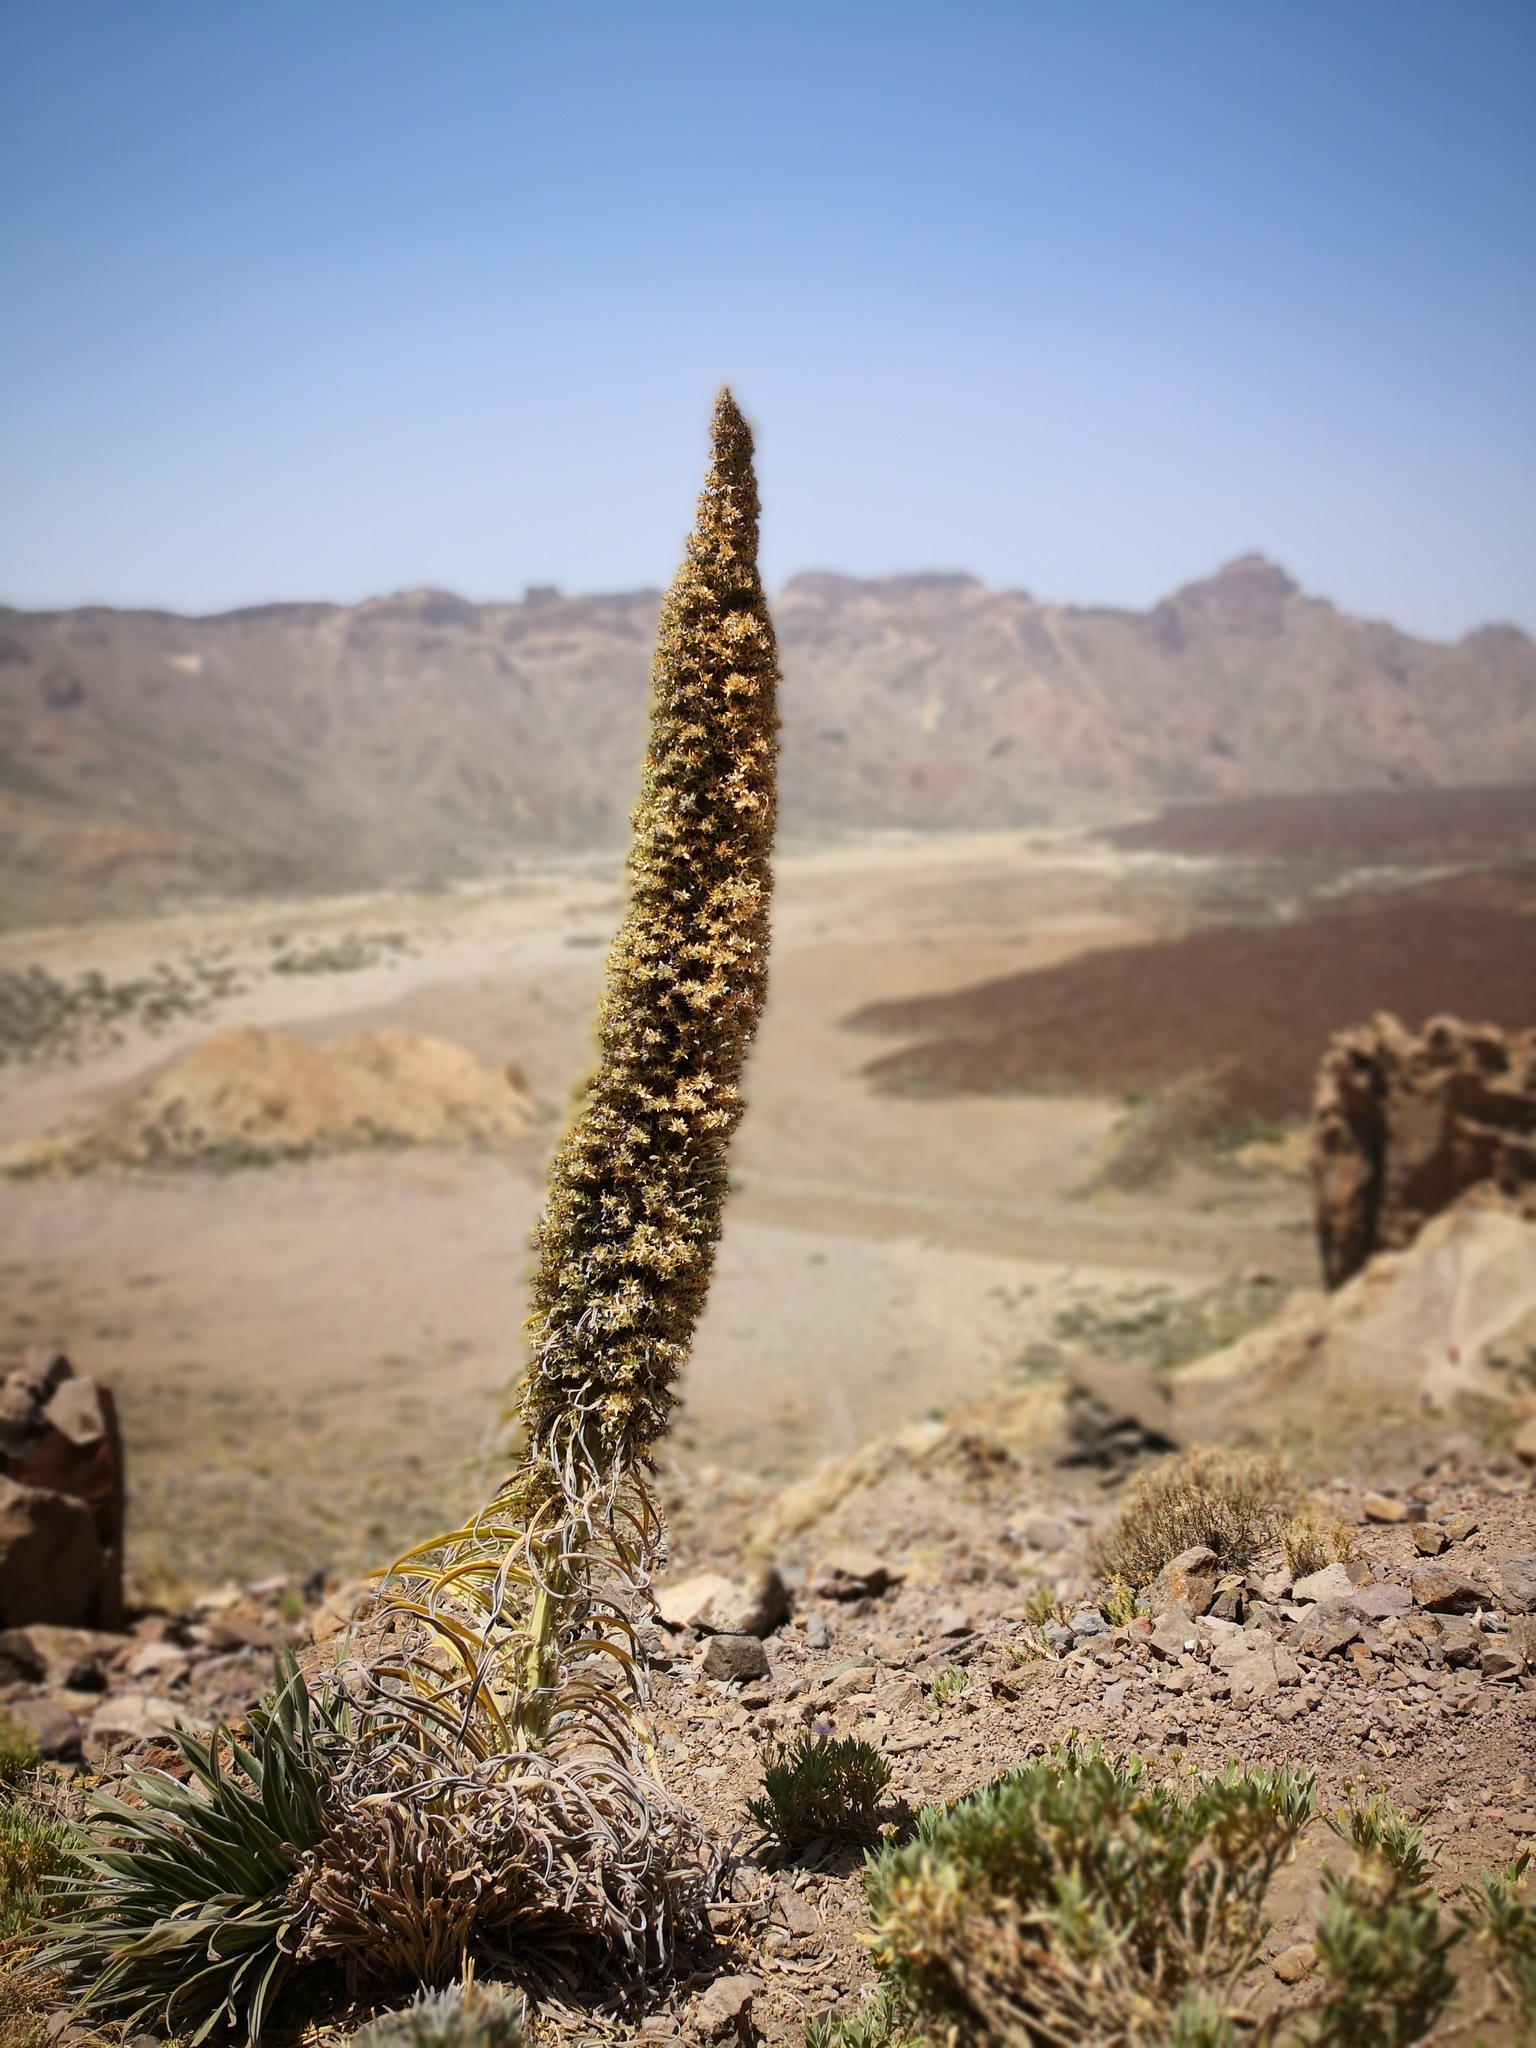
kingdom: Plantae
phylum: Tracheophyta
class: Magnoliopsida
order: Boraginales
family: Boraginaceae
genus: Echium
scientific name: Echium wildpretii
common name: Tower-of-jewels
